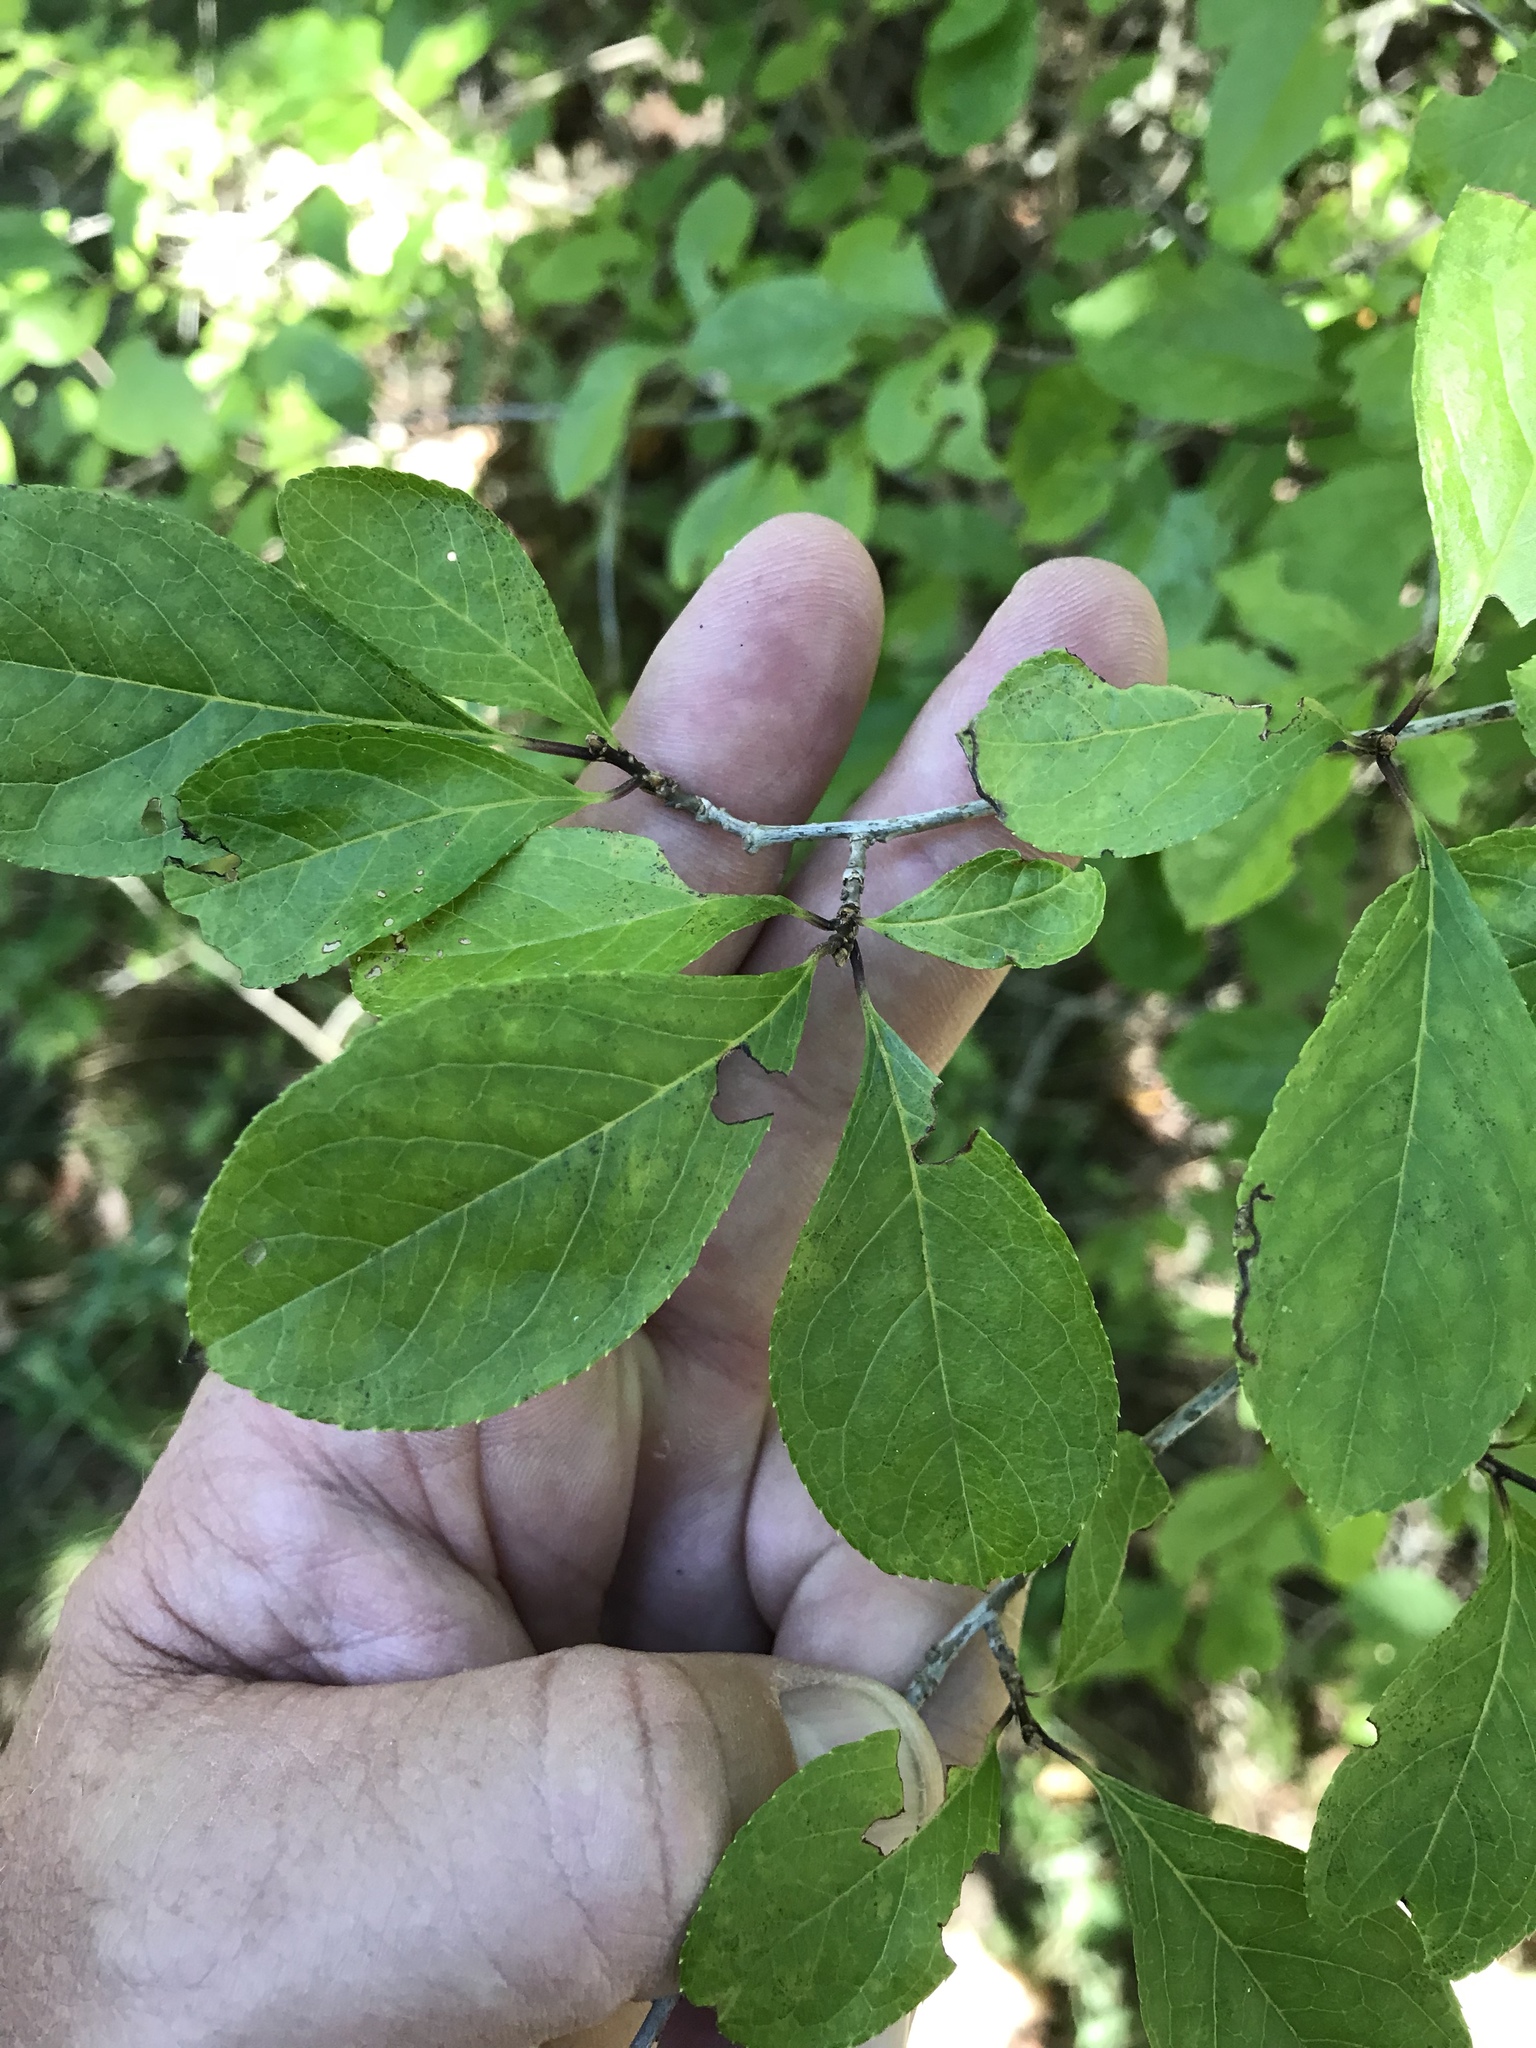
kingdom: Plantae
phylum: Tracheophyta
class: Magnoliopsida
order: Aquifoliales
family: Aquifoliaceae
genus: Ilex
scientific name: Ilex mucronata
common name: Catberry
